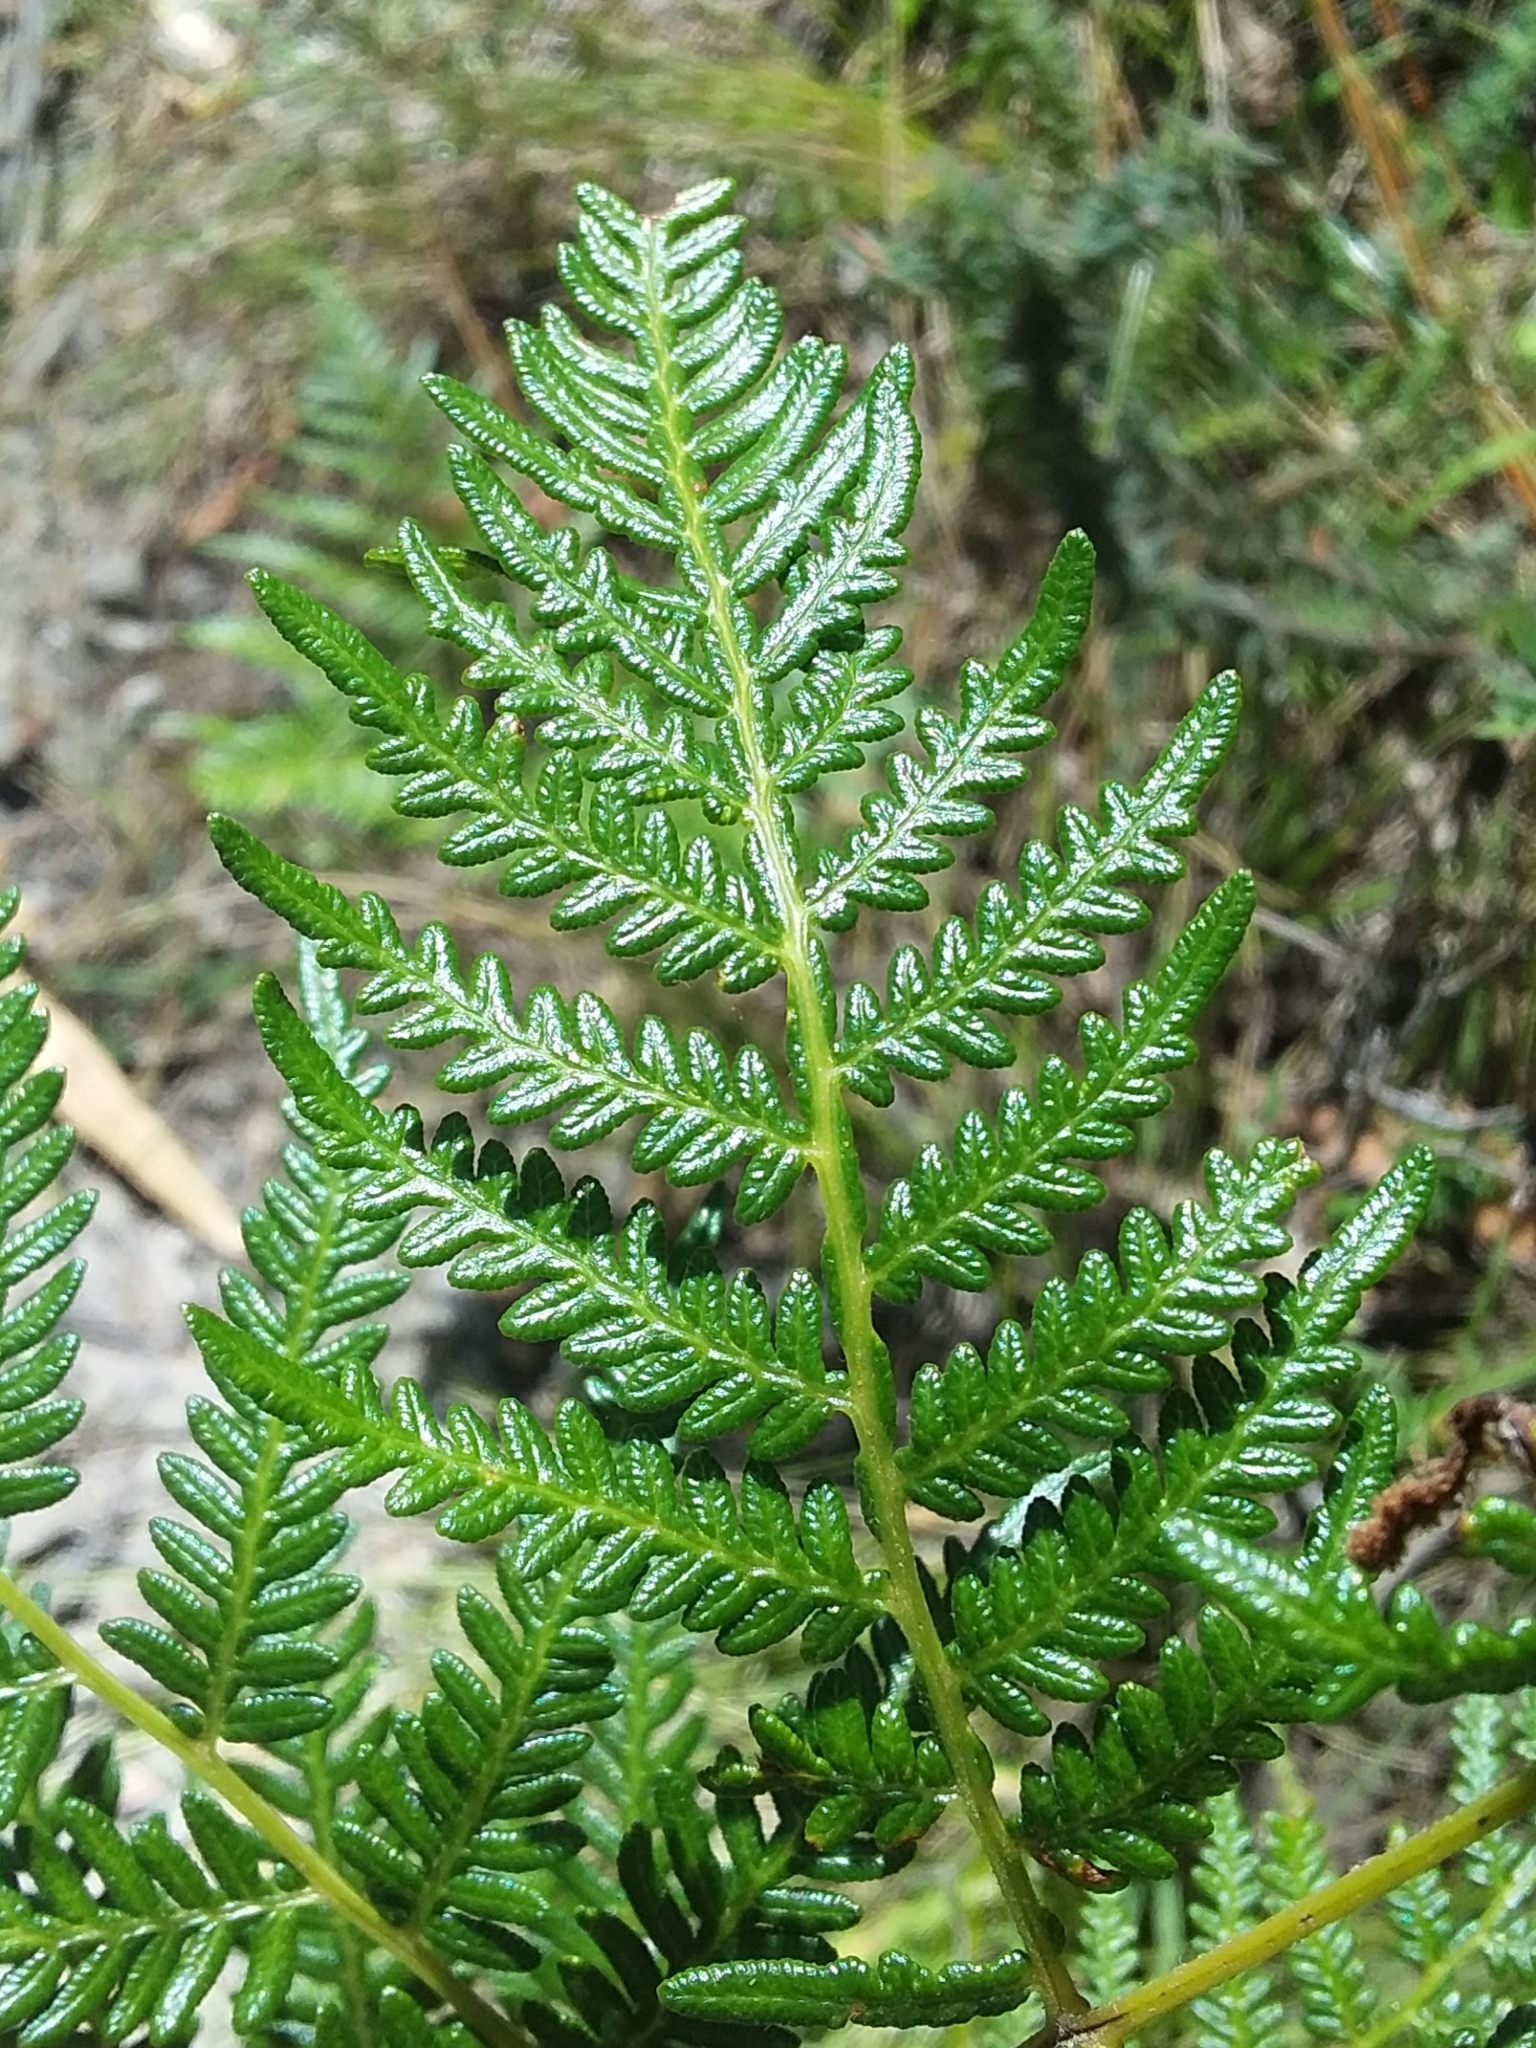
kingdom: Plantae
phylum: Tracheophyta
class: Polypodiopsida
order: Polypodiales
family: Dennstaedtiaceae
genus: Pteridium
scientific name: Pteridium esculentum
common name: Bracken fern
